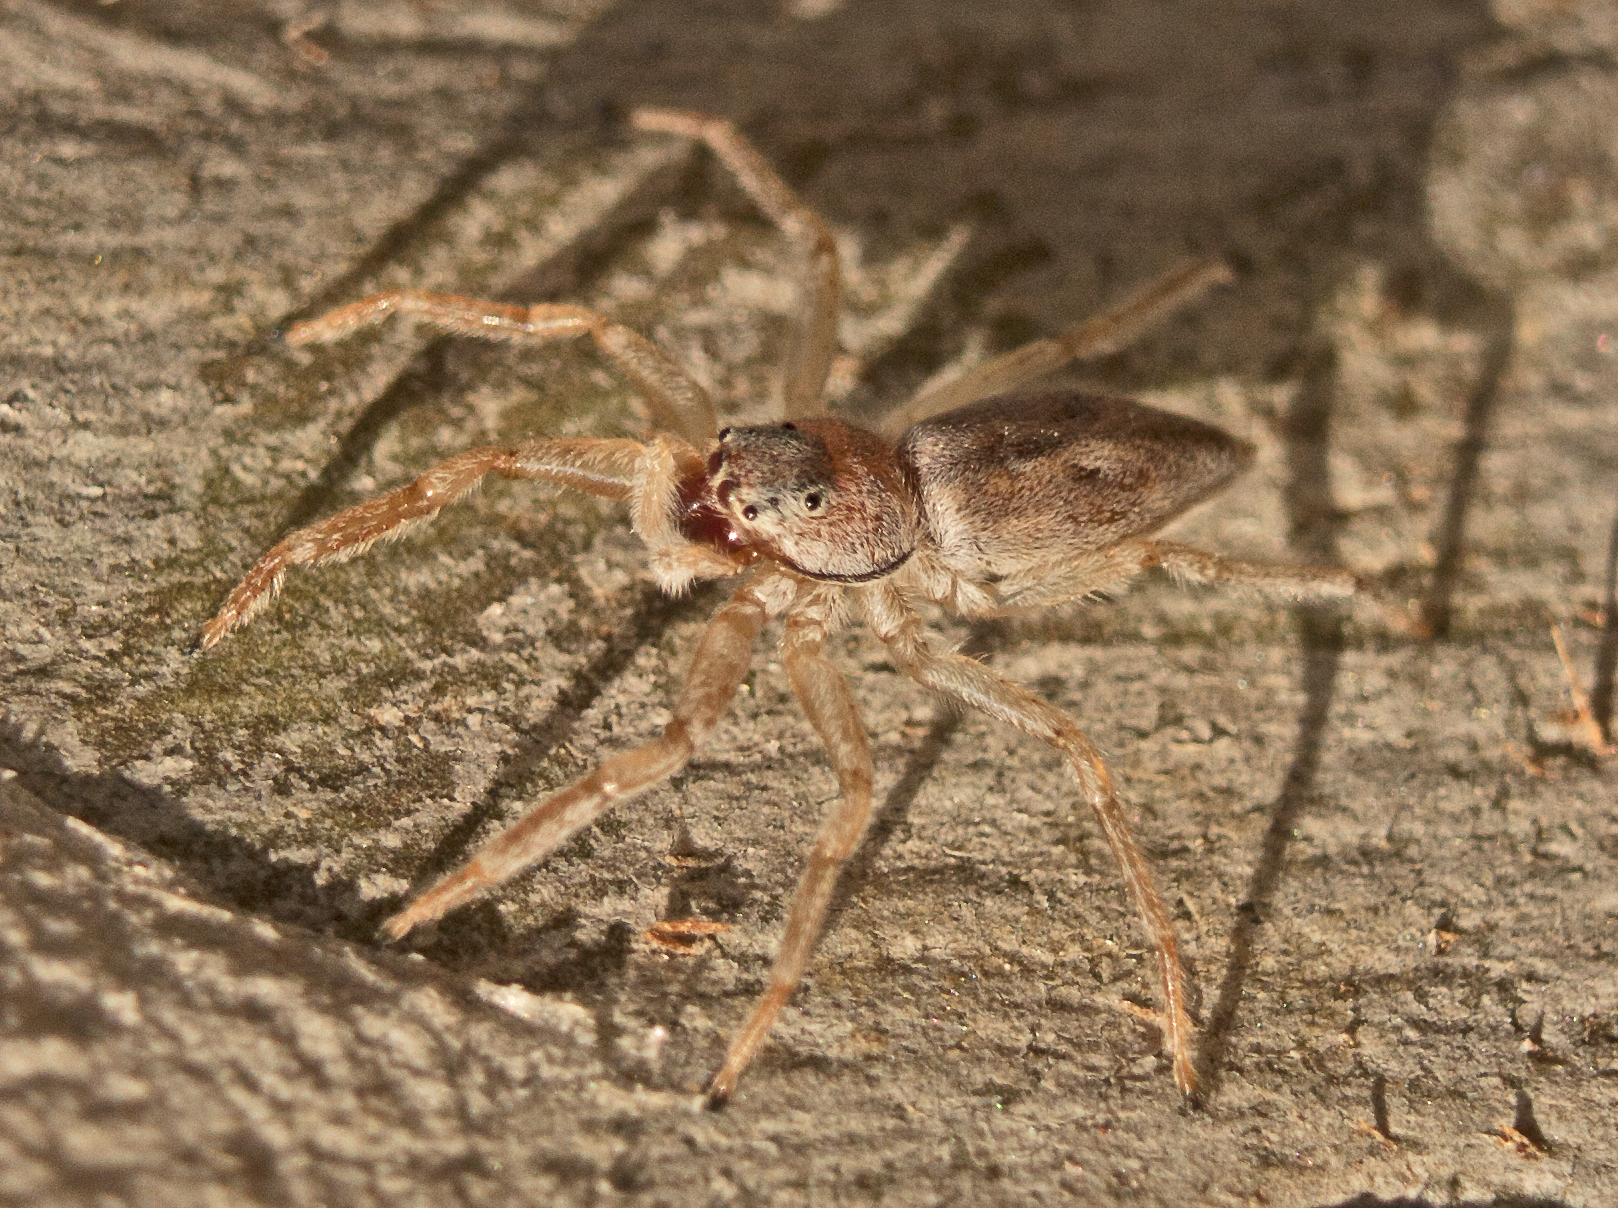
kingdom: Animalia
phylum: Arthropoda
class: Arachnida
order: Araneae
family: Salticidae
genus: Arasia
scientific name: Arasia mollicoma
